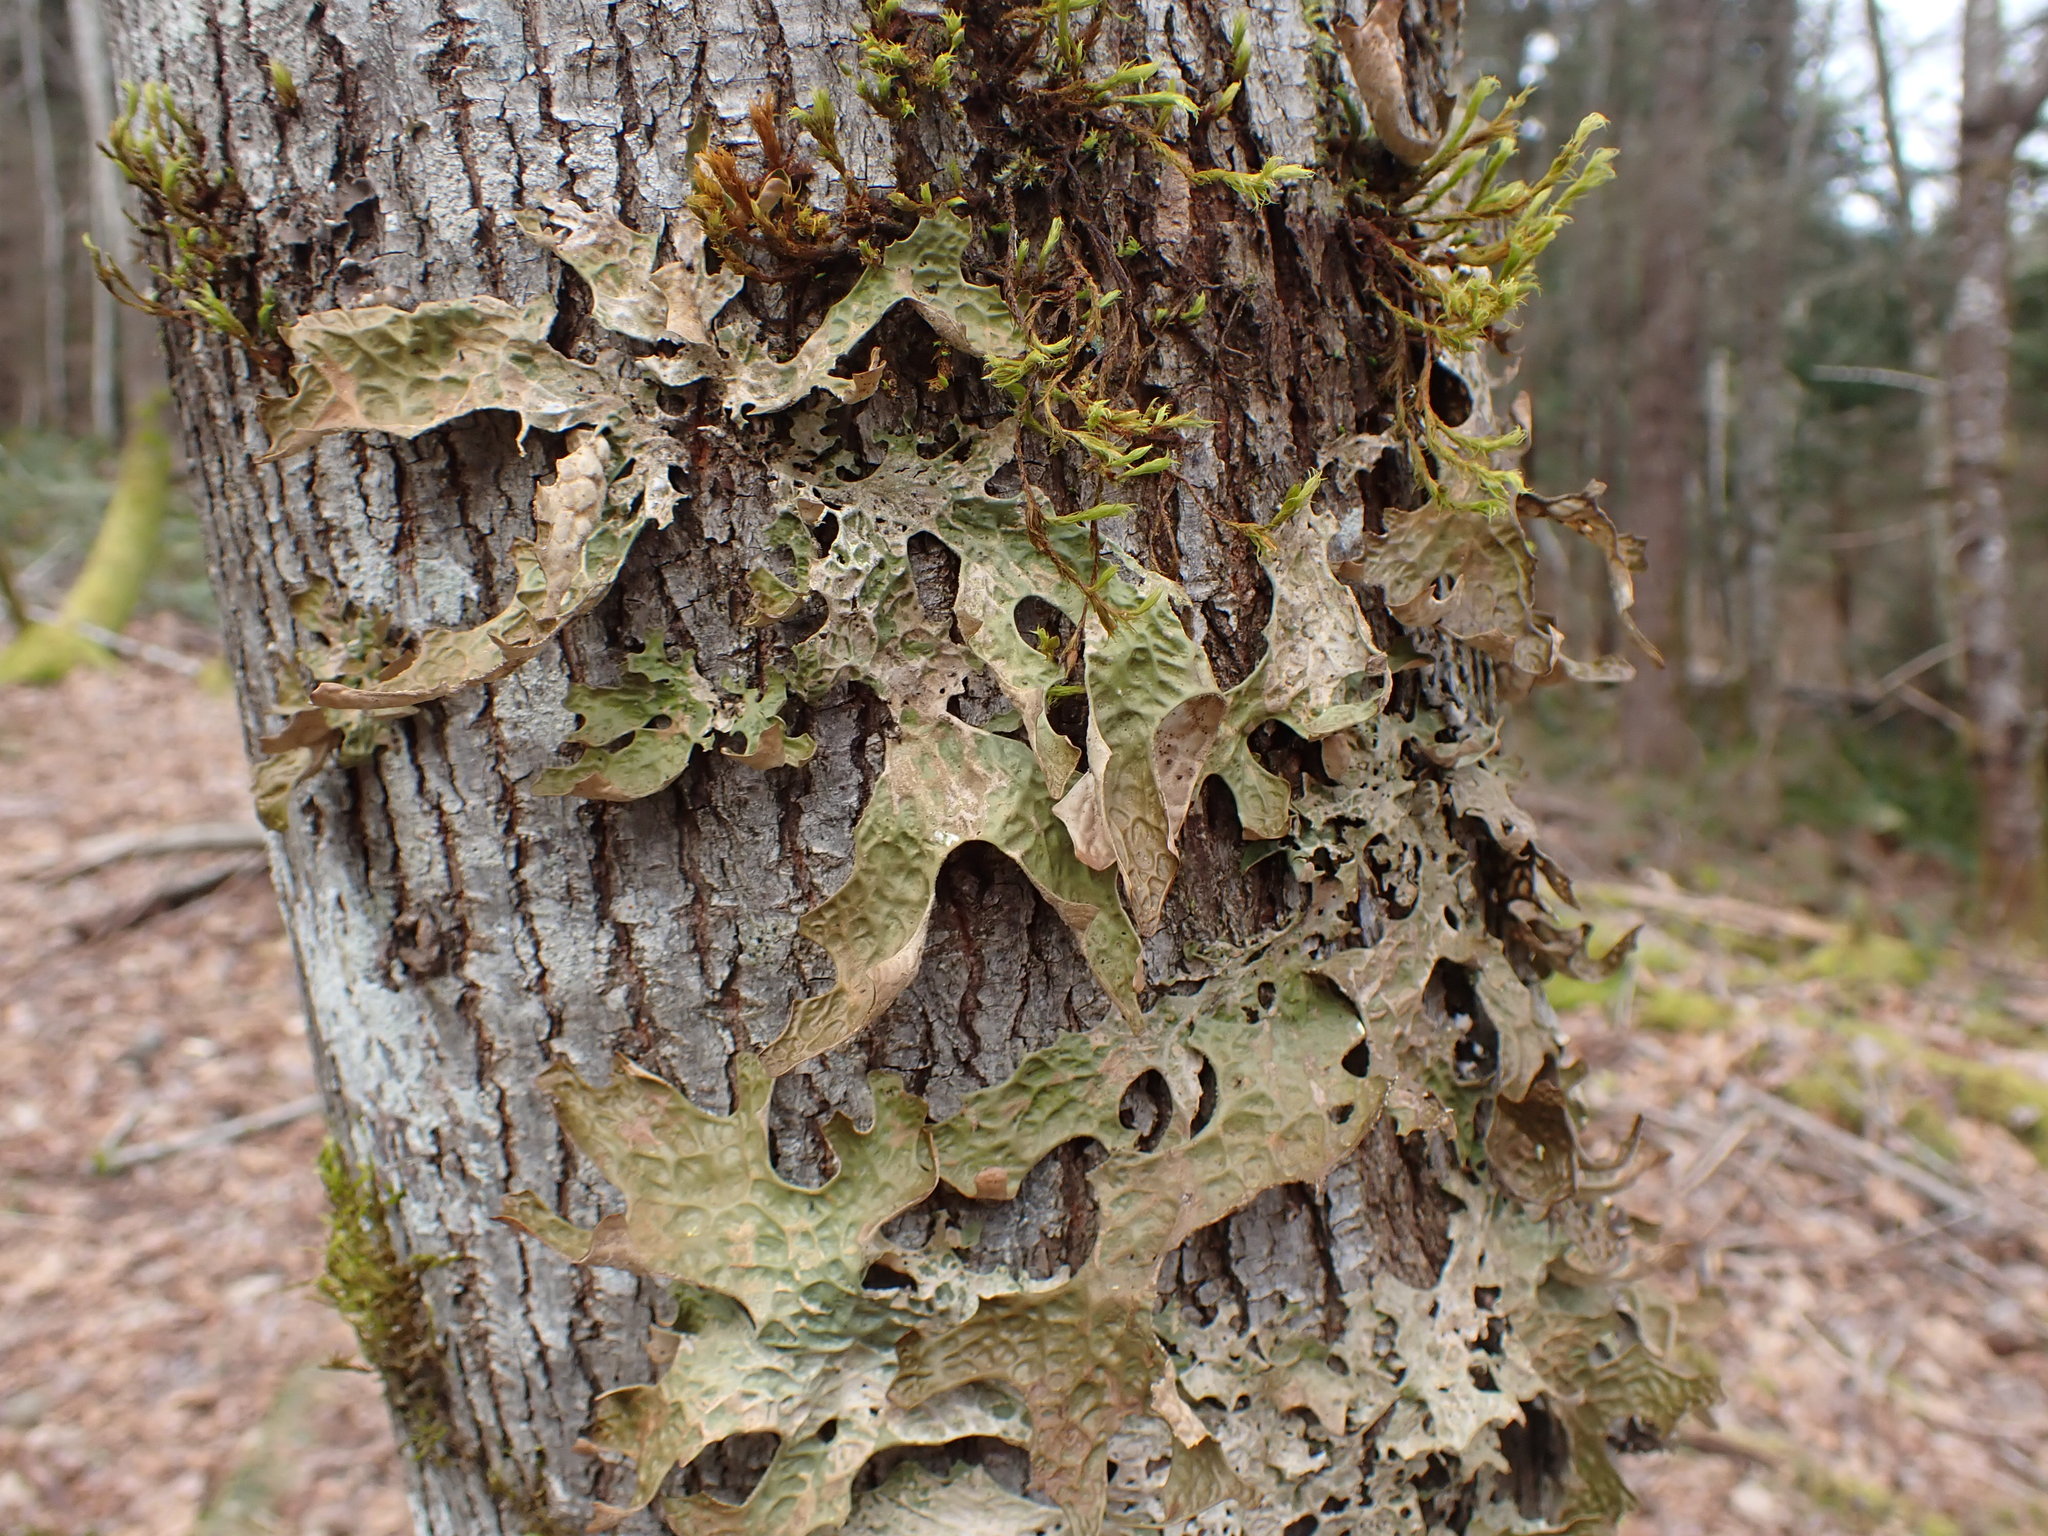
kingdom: Fungi
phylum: Ascomycota
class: Lecanoromycetes
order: Peltigerales
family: Lobariaceae
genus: Lobaria
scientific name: Lobaria pulmonaria
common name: Lungwort
